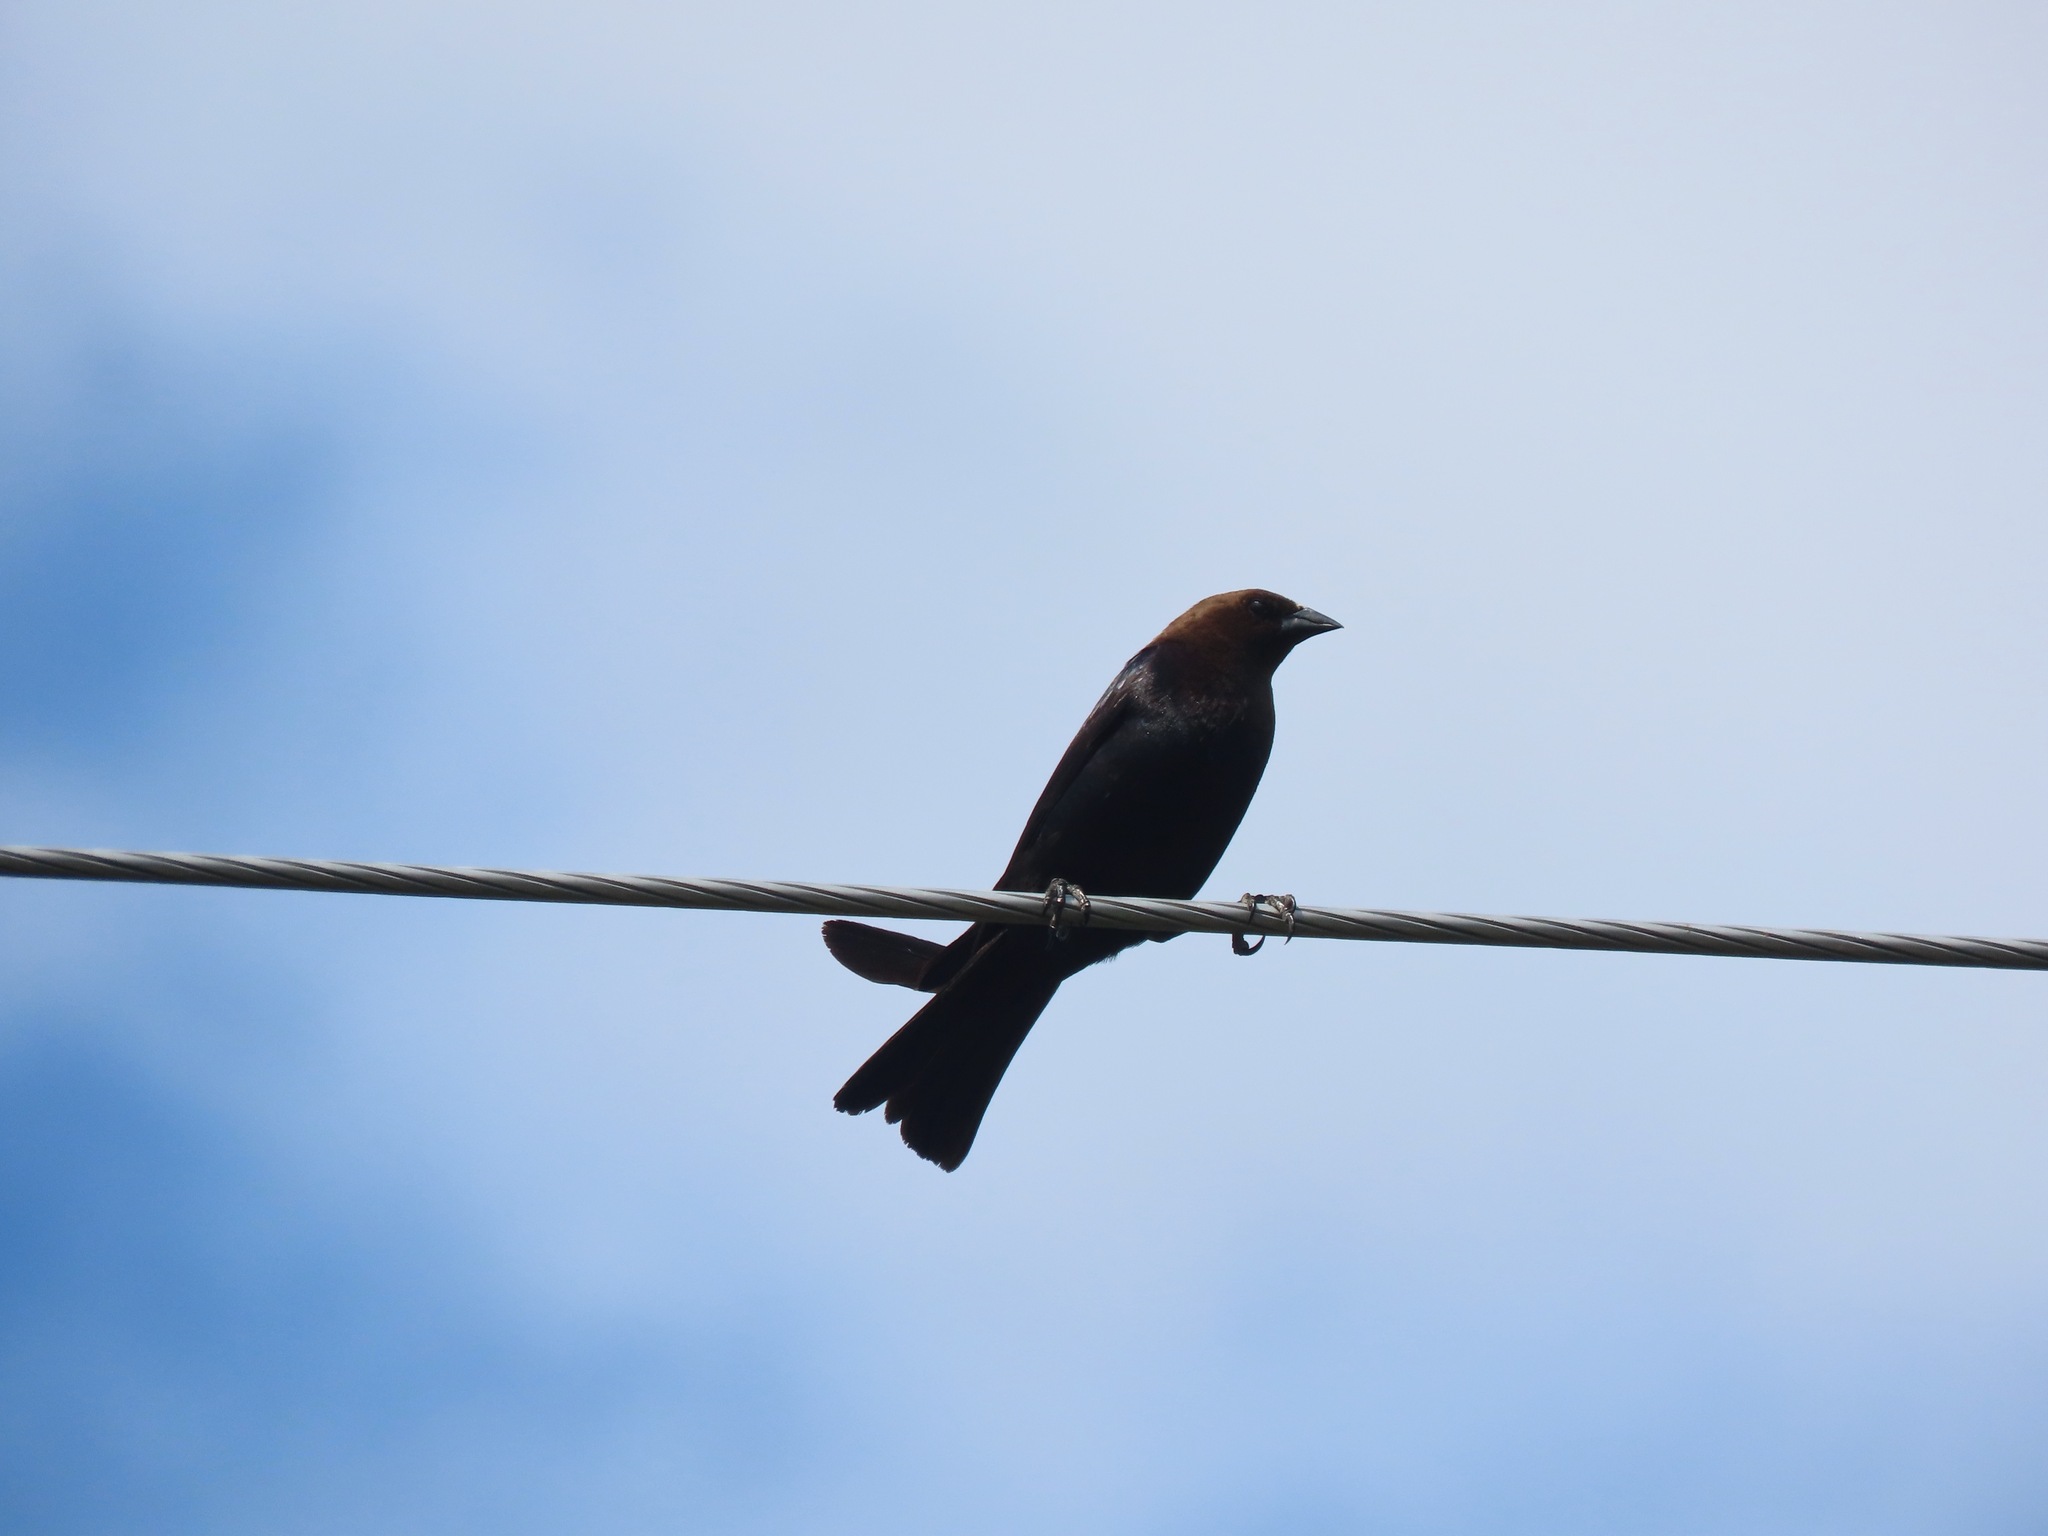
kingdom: Animalia
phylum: Chordata
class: Aves
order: Passeriformes
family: Icteridae
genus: Molothrus
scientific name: Molothrus ater
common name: Brown-headed cowbird
